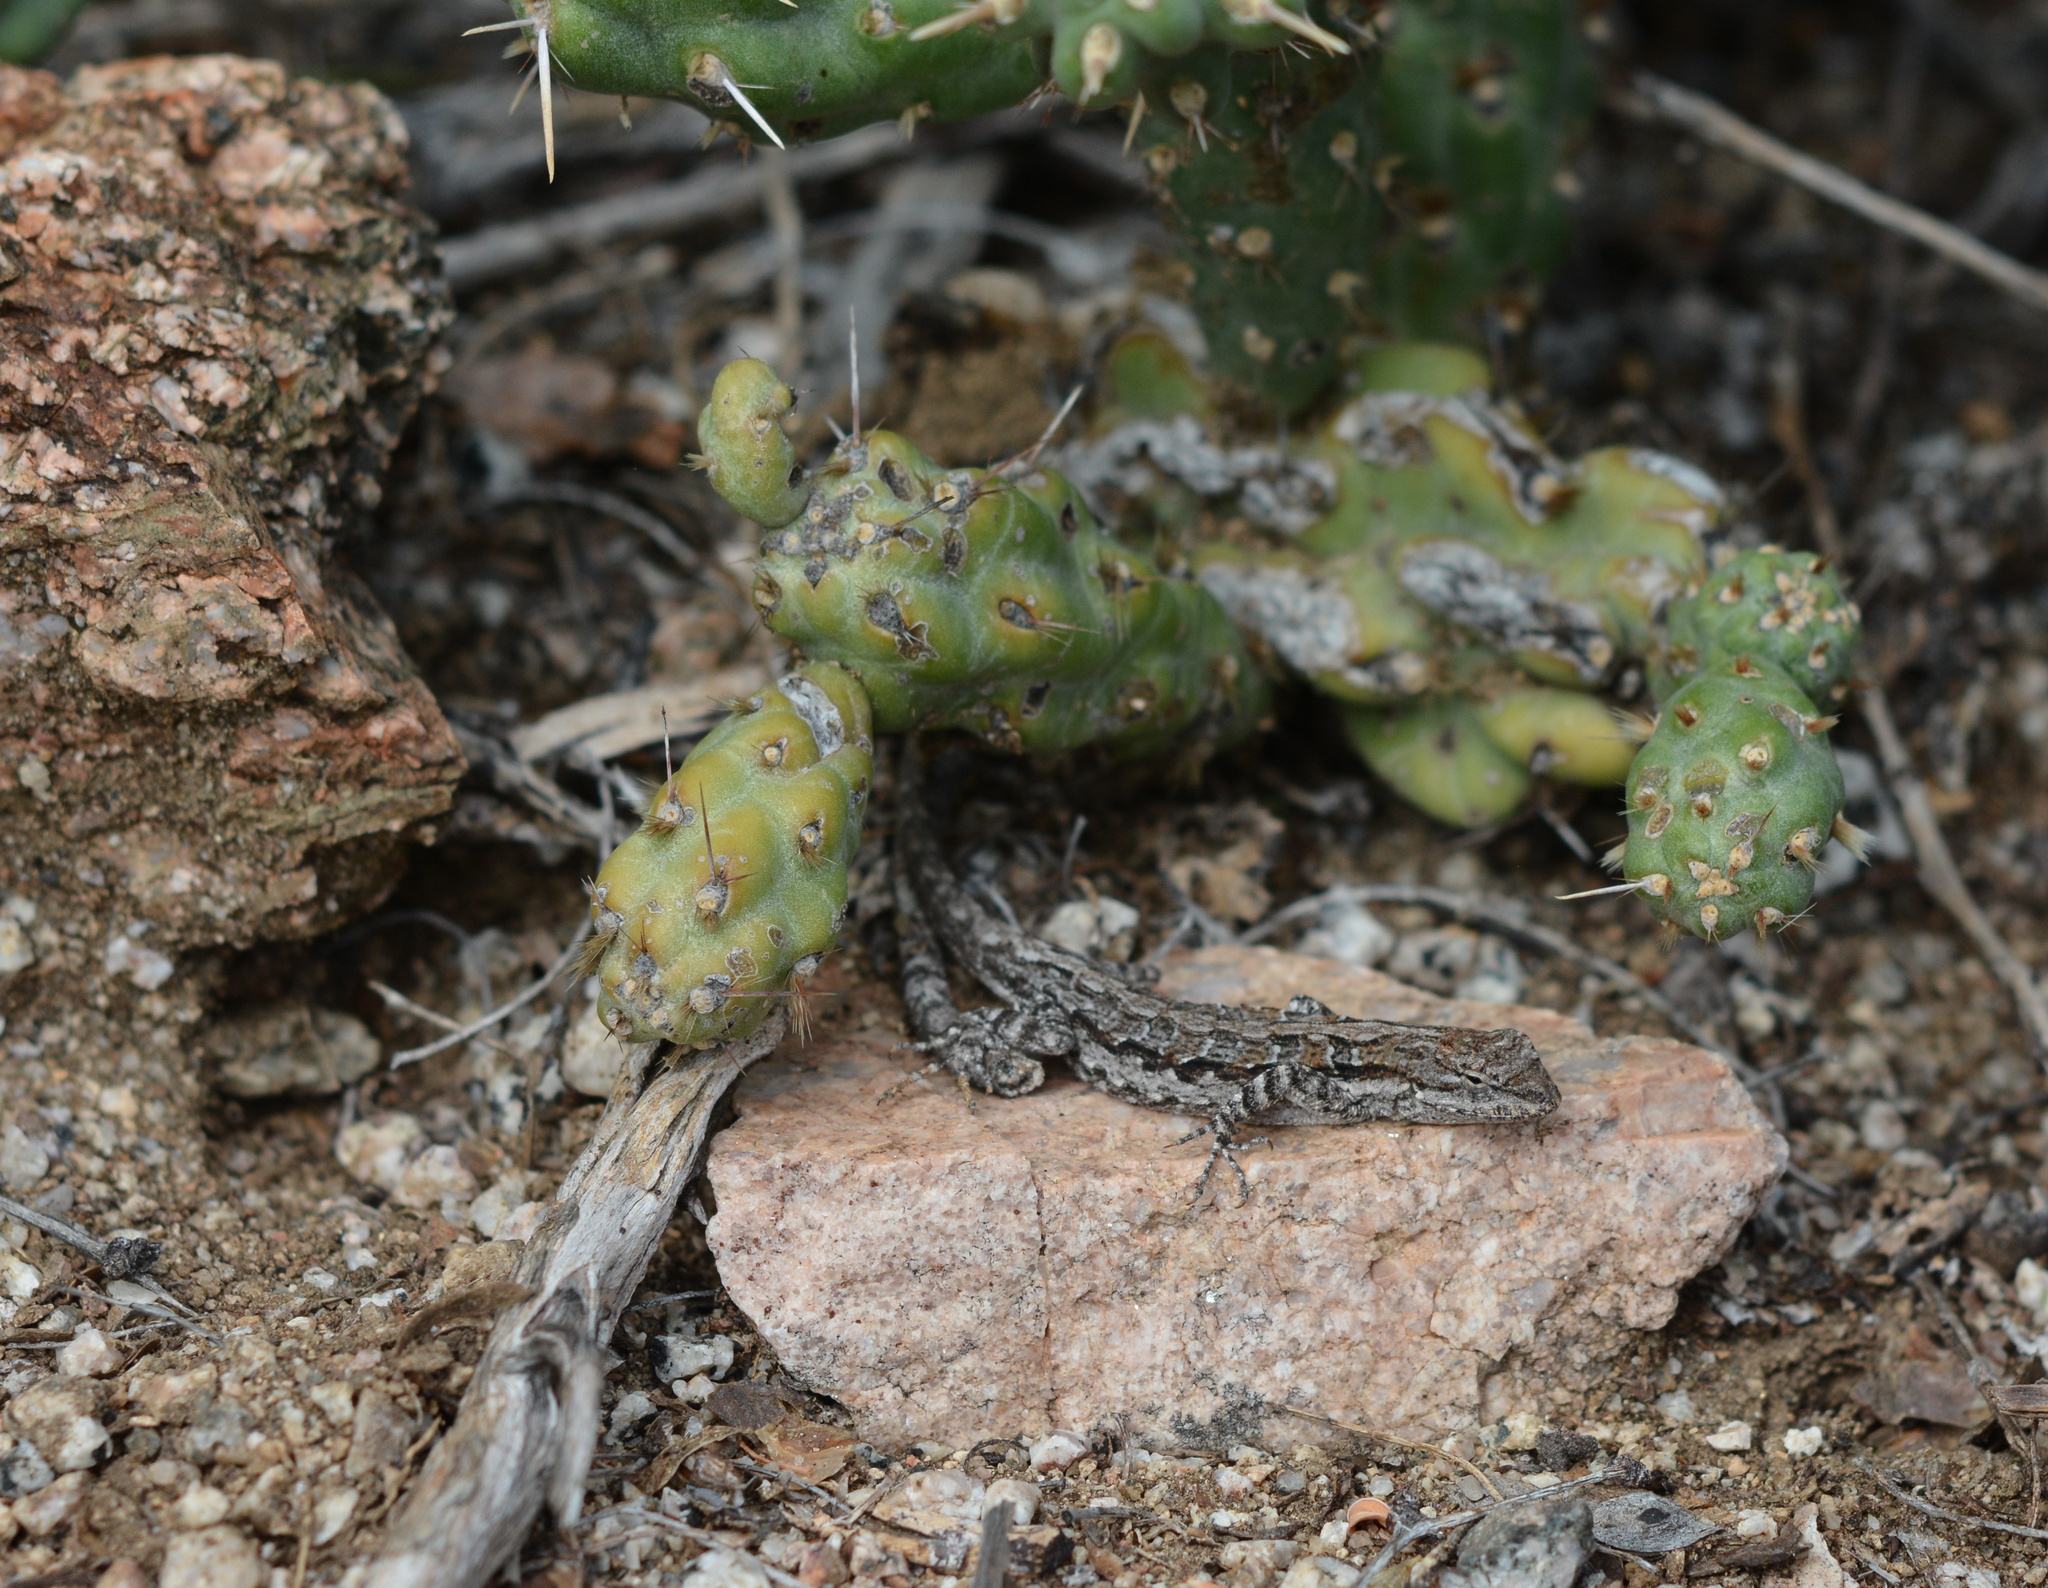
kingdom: Animalia
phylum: Chordata
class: Squamata
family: Phrynosomatidae
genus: Urosaurus
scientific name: Urosaurus nigricauda
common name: Baja california brush lizard
